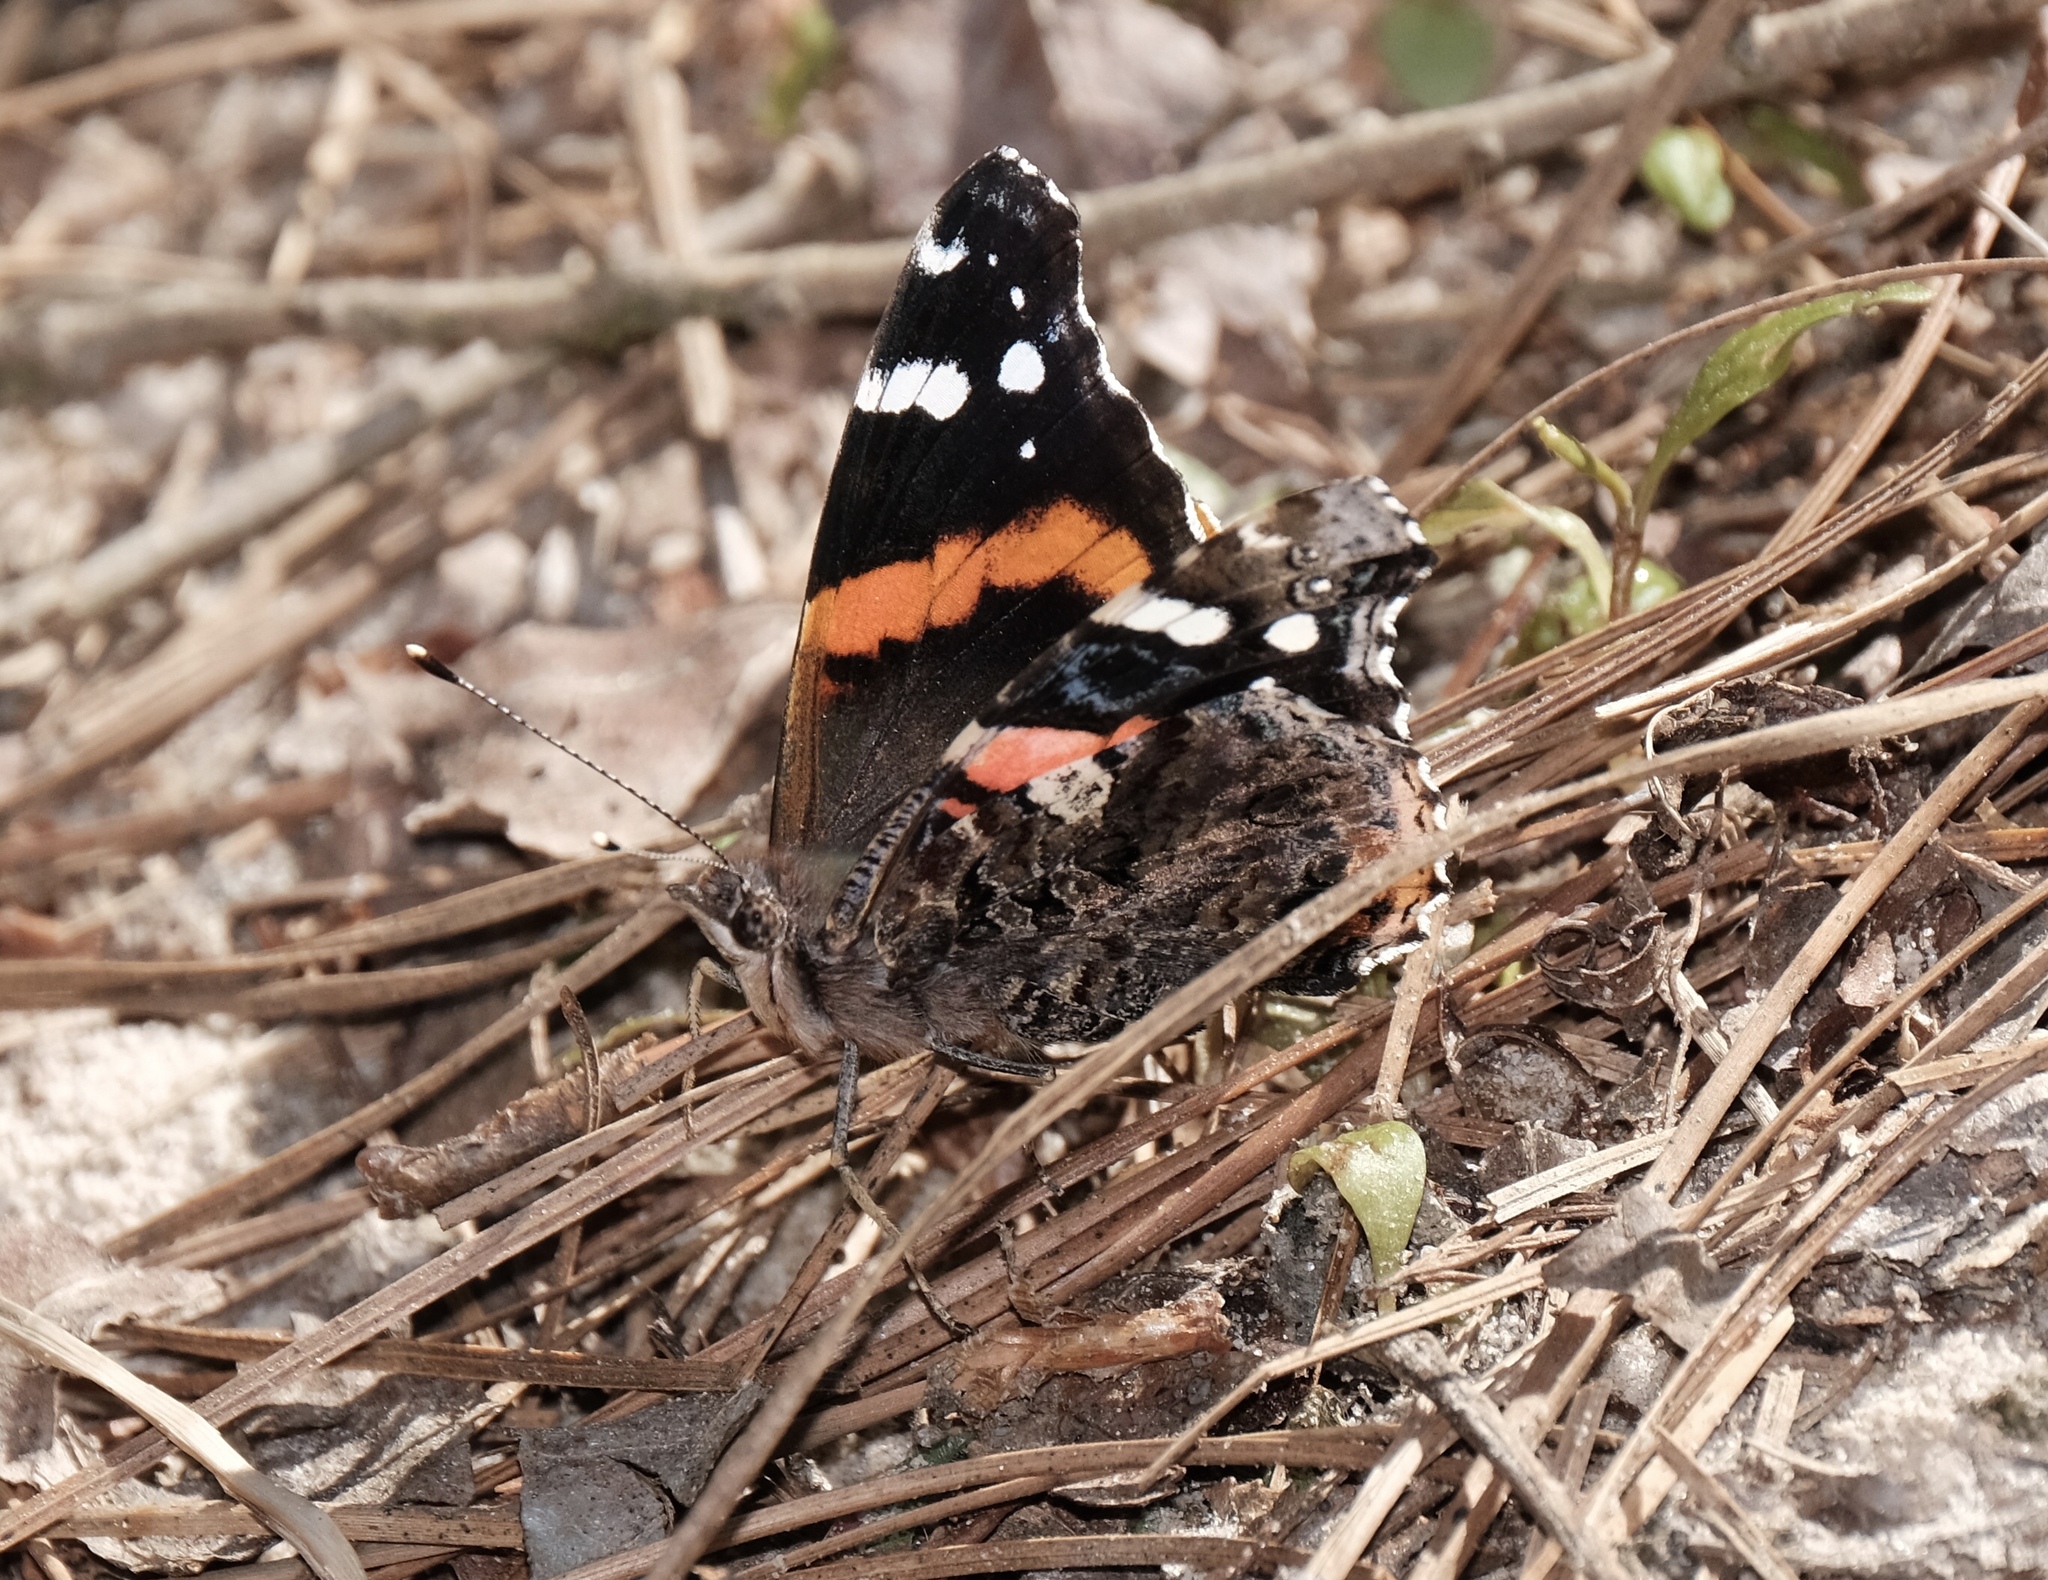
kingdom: Animalia
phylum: Arthropoda
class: Insecta
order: Lepidoptera
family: Nymphalidae
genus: Vanessa
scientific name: Vanessa atalanta
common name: Red admiral
